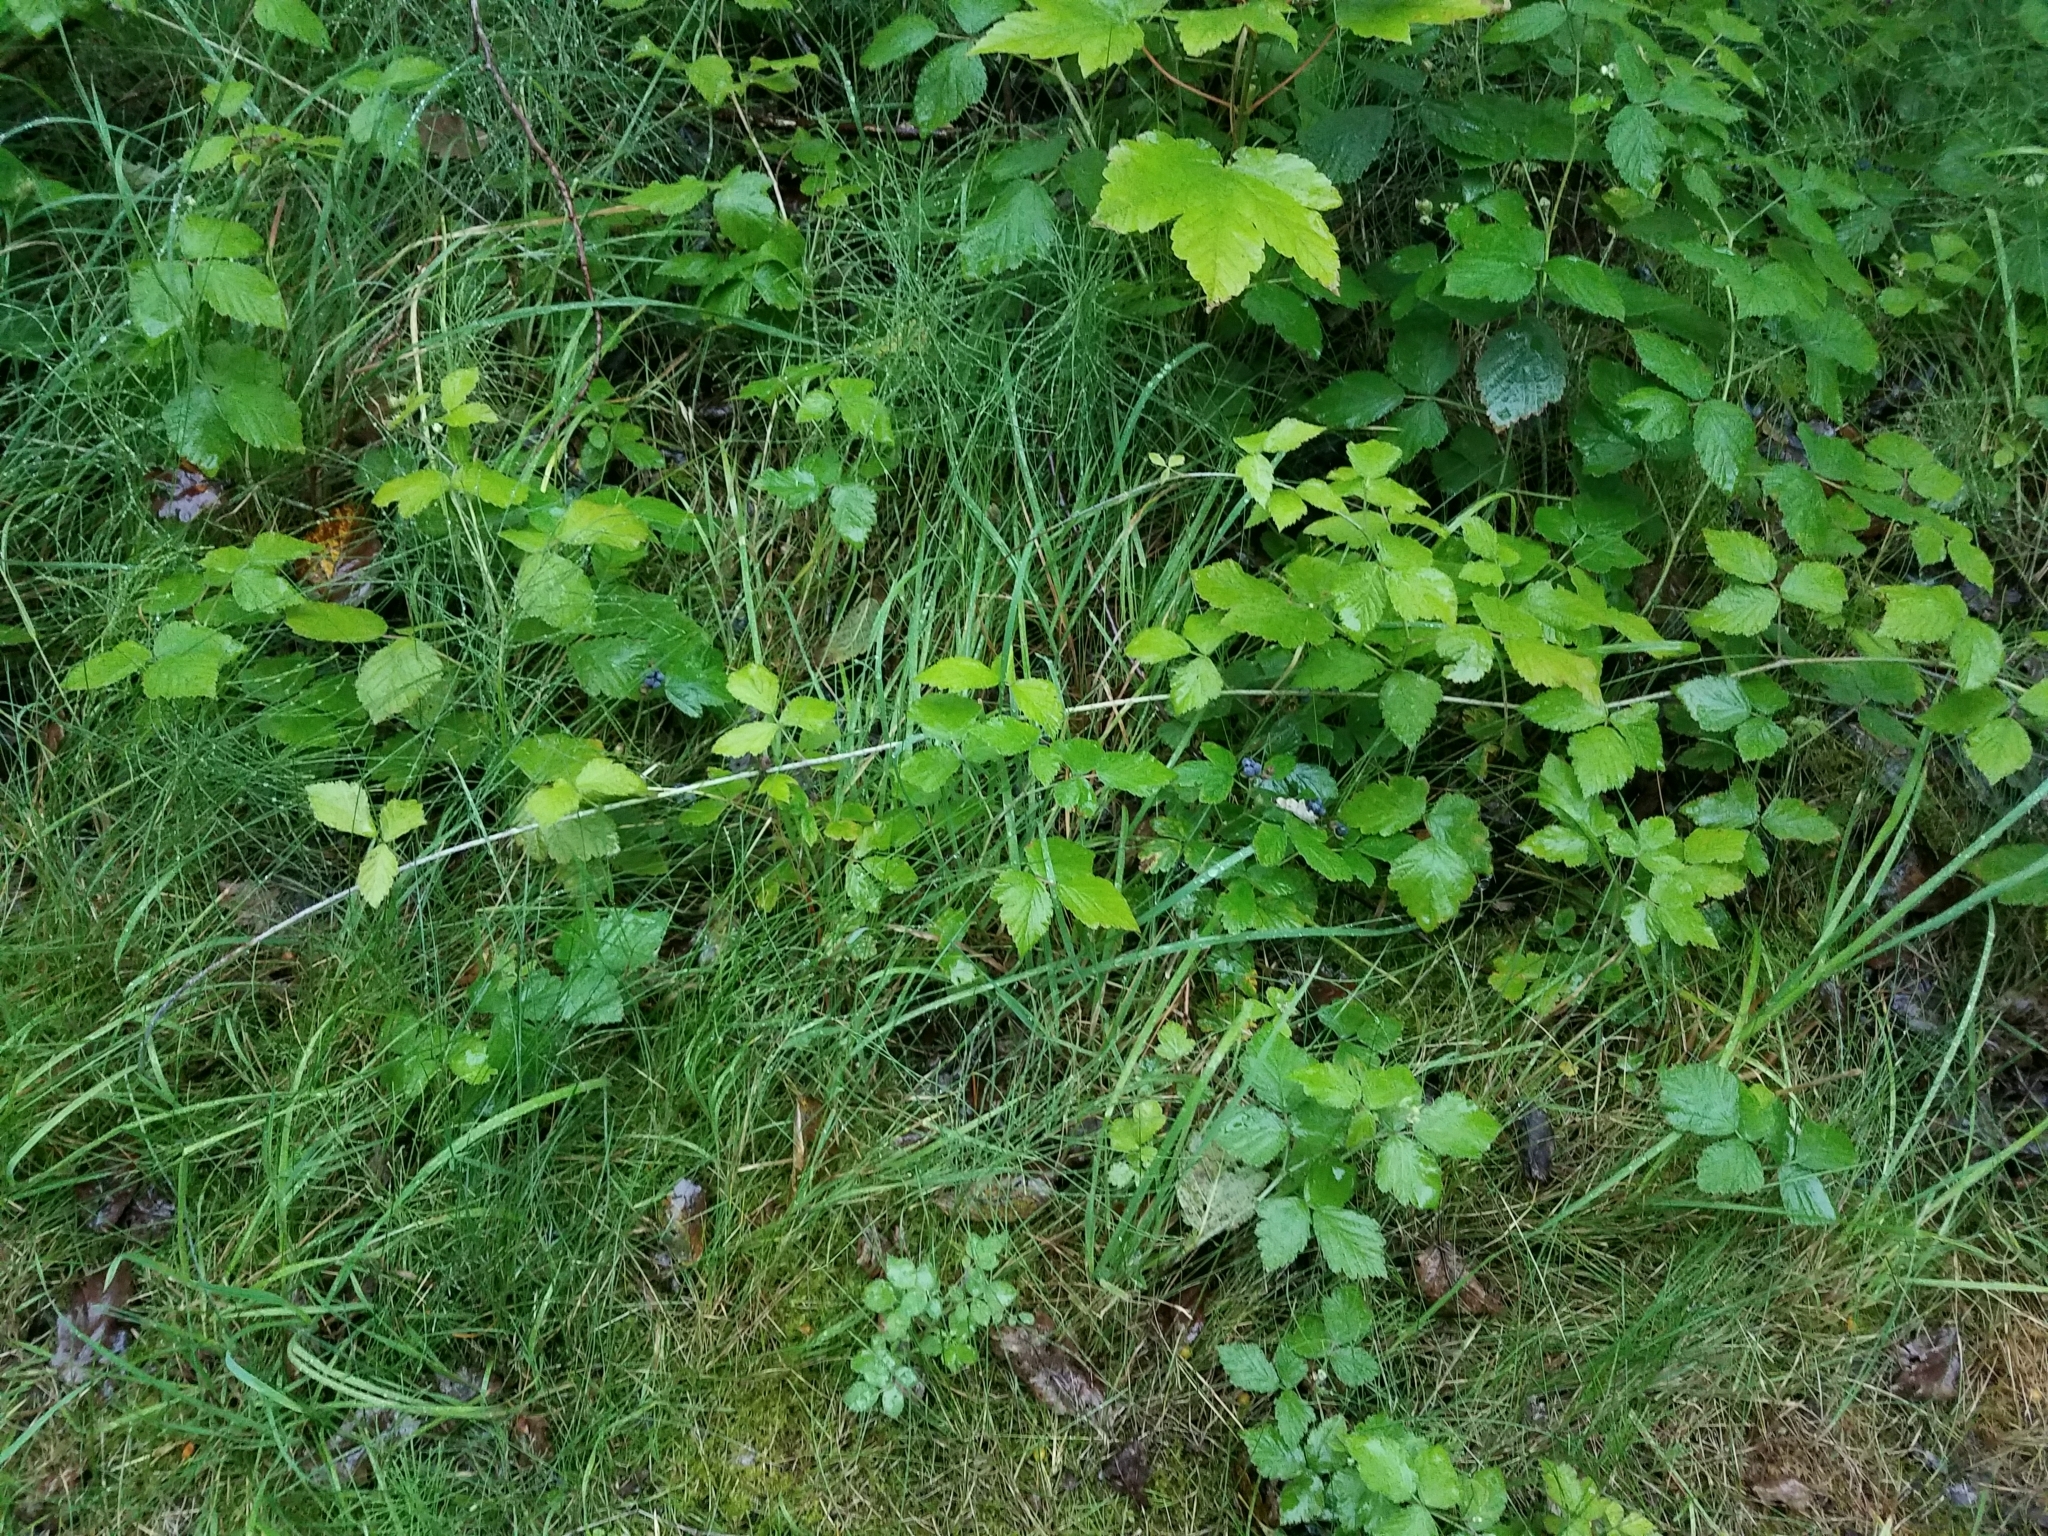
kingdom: Plantae
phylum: Tracheophyta
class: Magnoliopsida
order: Rosales
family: Rosaceae
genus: Rubus
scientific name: Rubus caesius
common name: Dewberry
